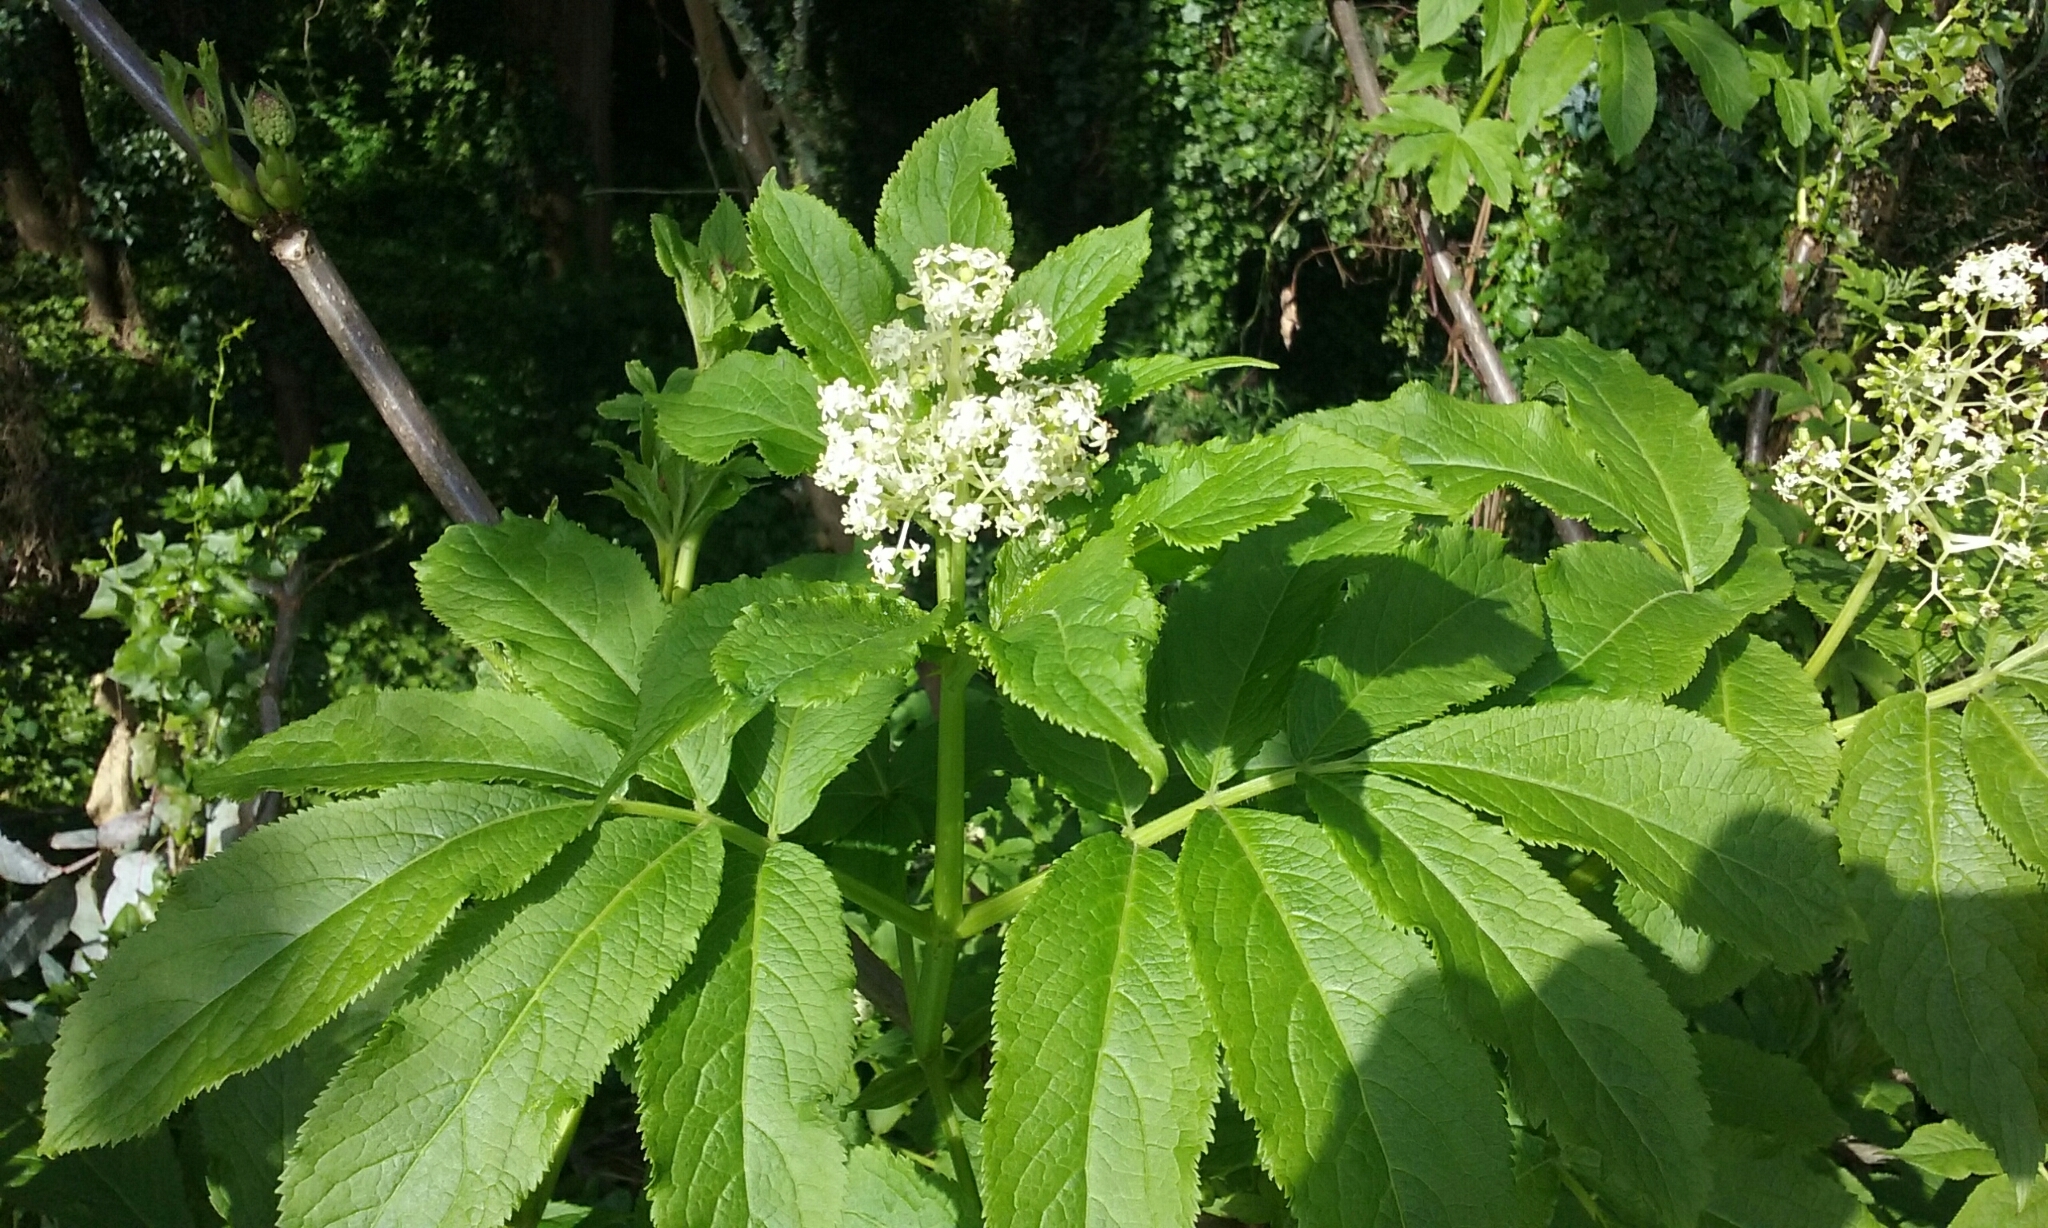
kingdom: Plantae
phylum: Tracheophyta
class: Magnoliopsida
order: Dipsacales
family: Viburnaceae
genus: Sambucus
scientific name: Sambucus racemosa
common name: Red-berried elder
